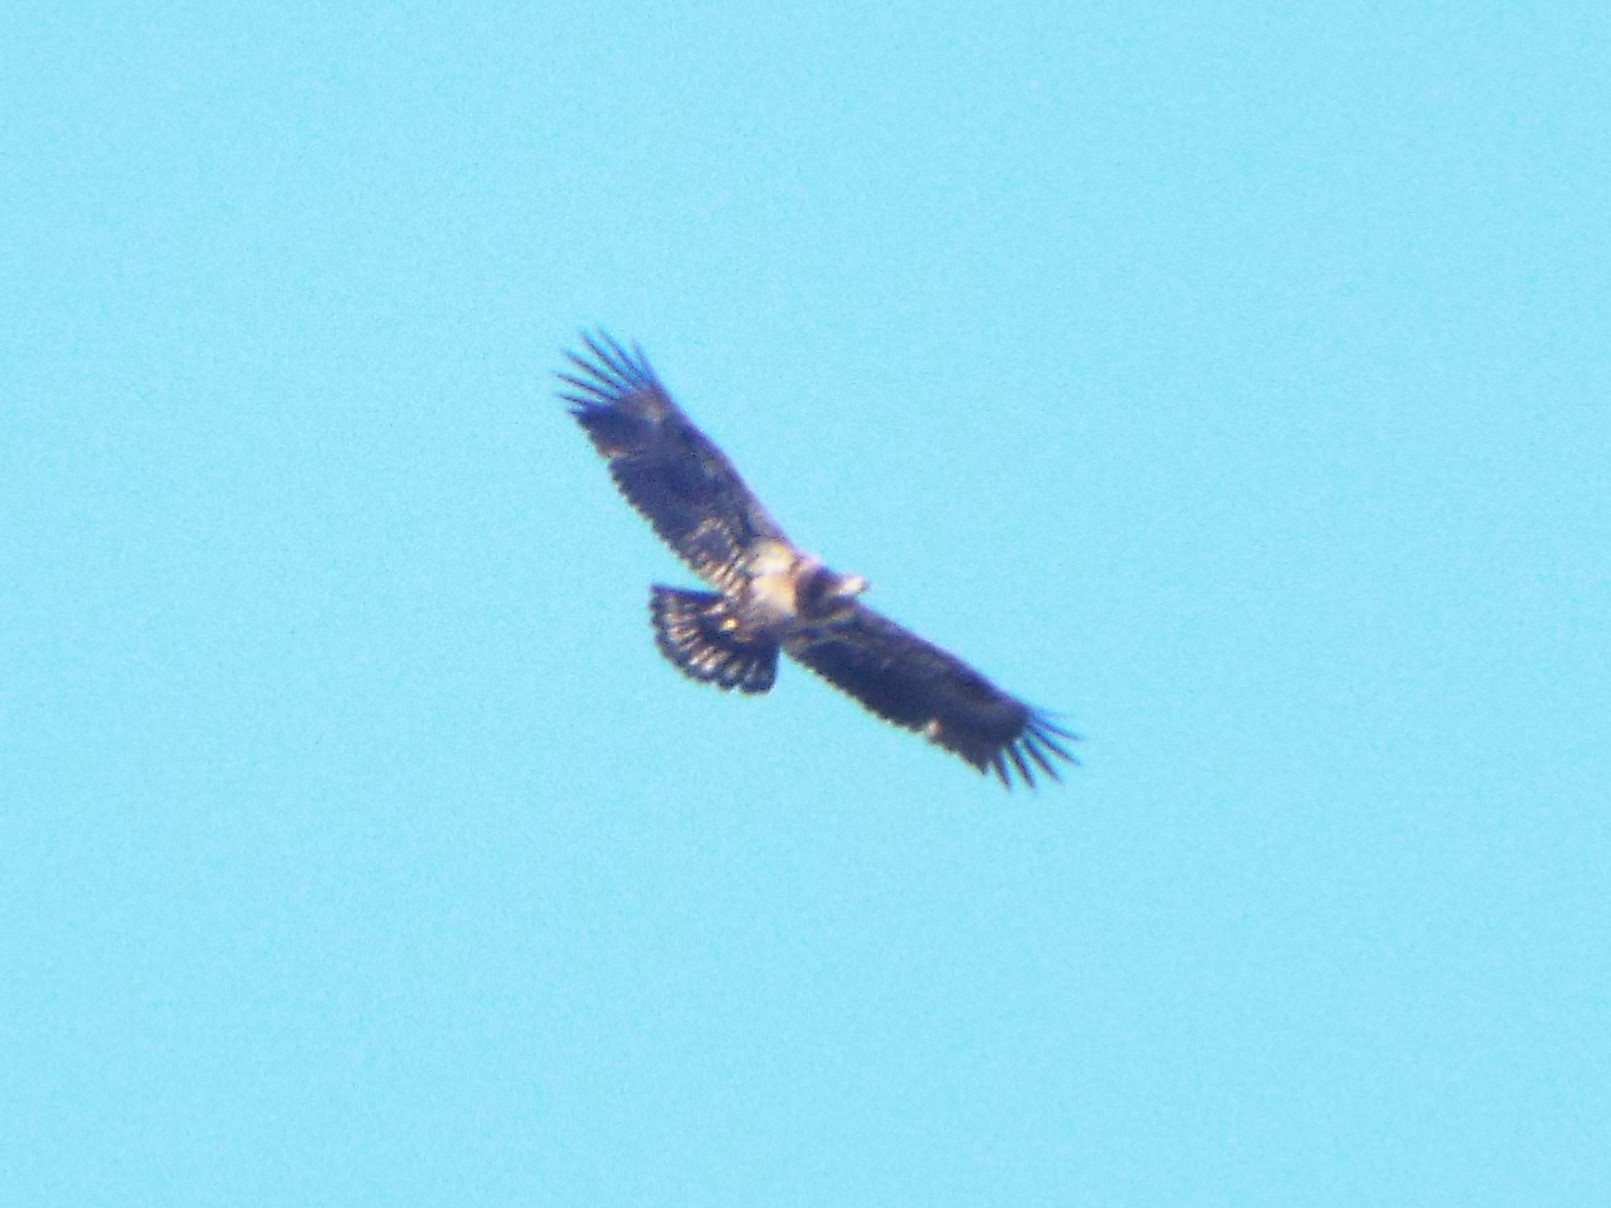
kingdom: Animalia
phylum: Chordata
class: Aves
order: Accipitriformes
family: Accipitridae
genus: Haliaeetus
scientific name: Haliaeetus leucocephalus
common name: Bald eagle
